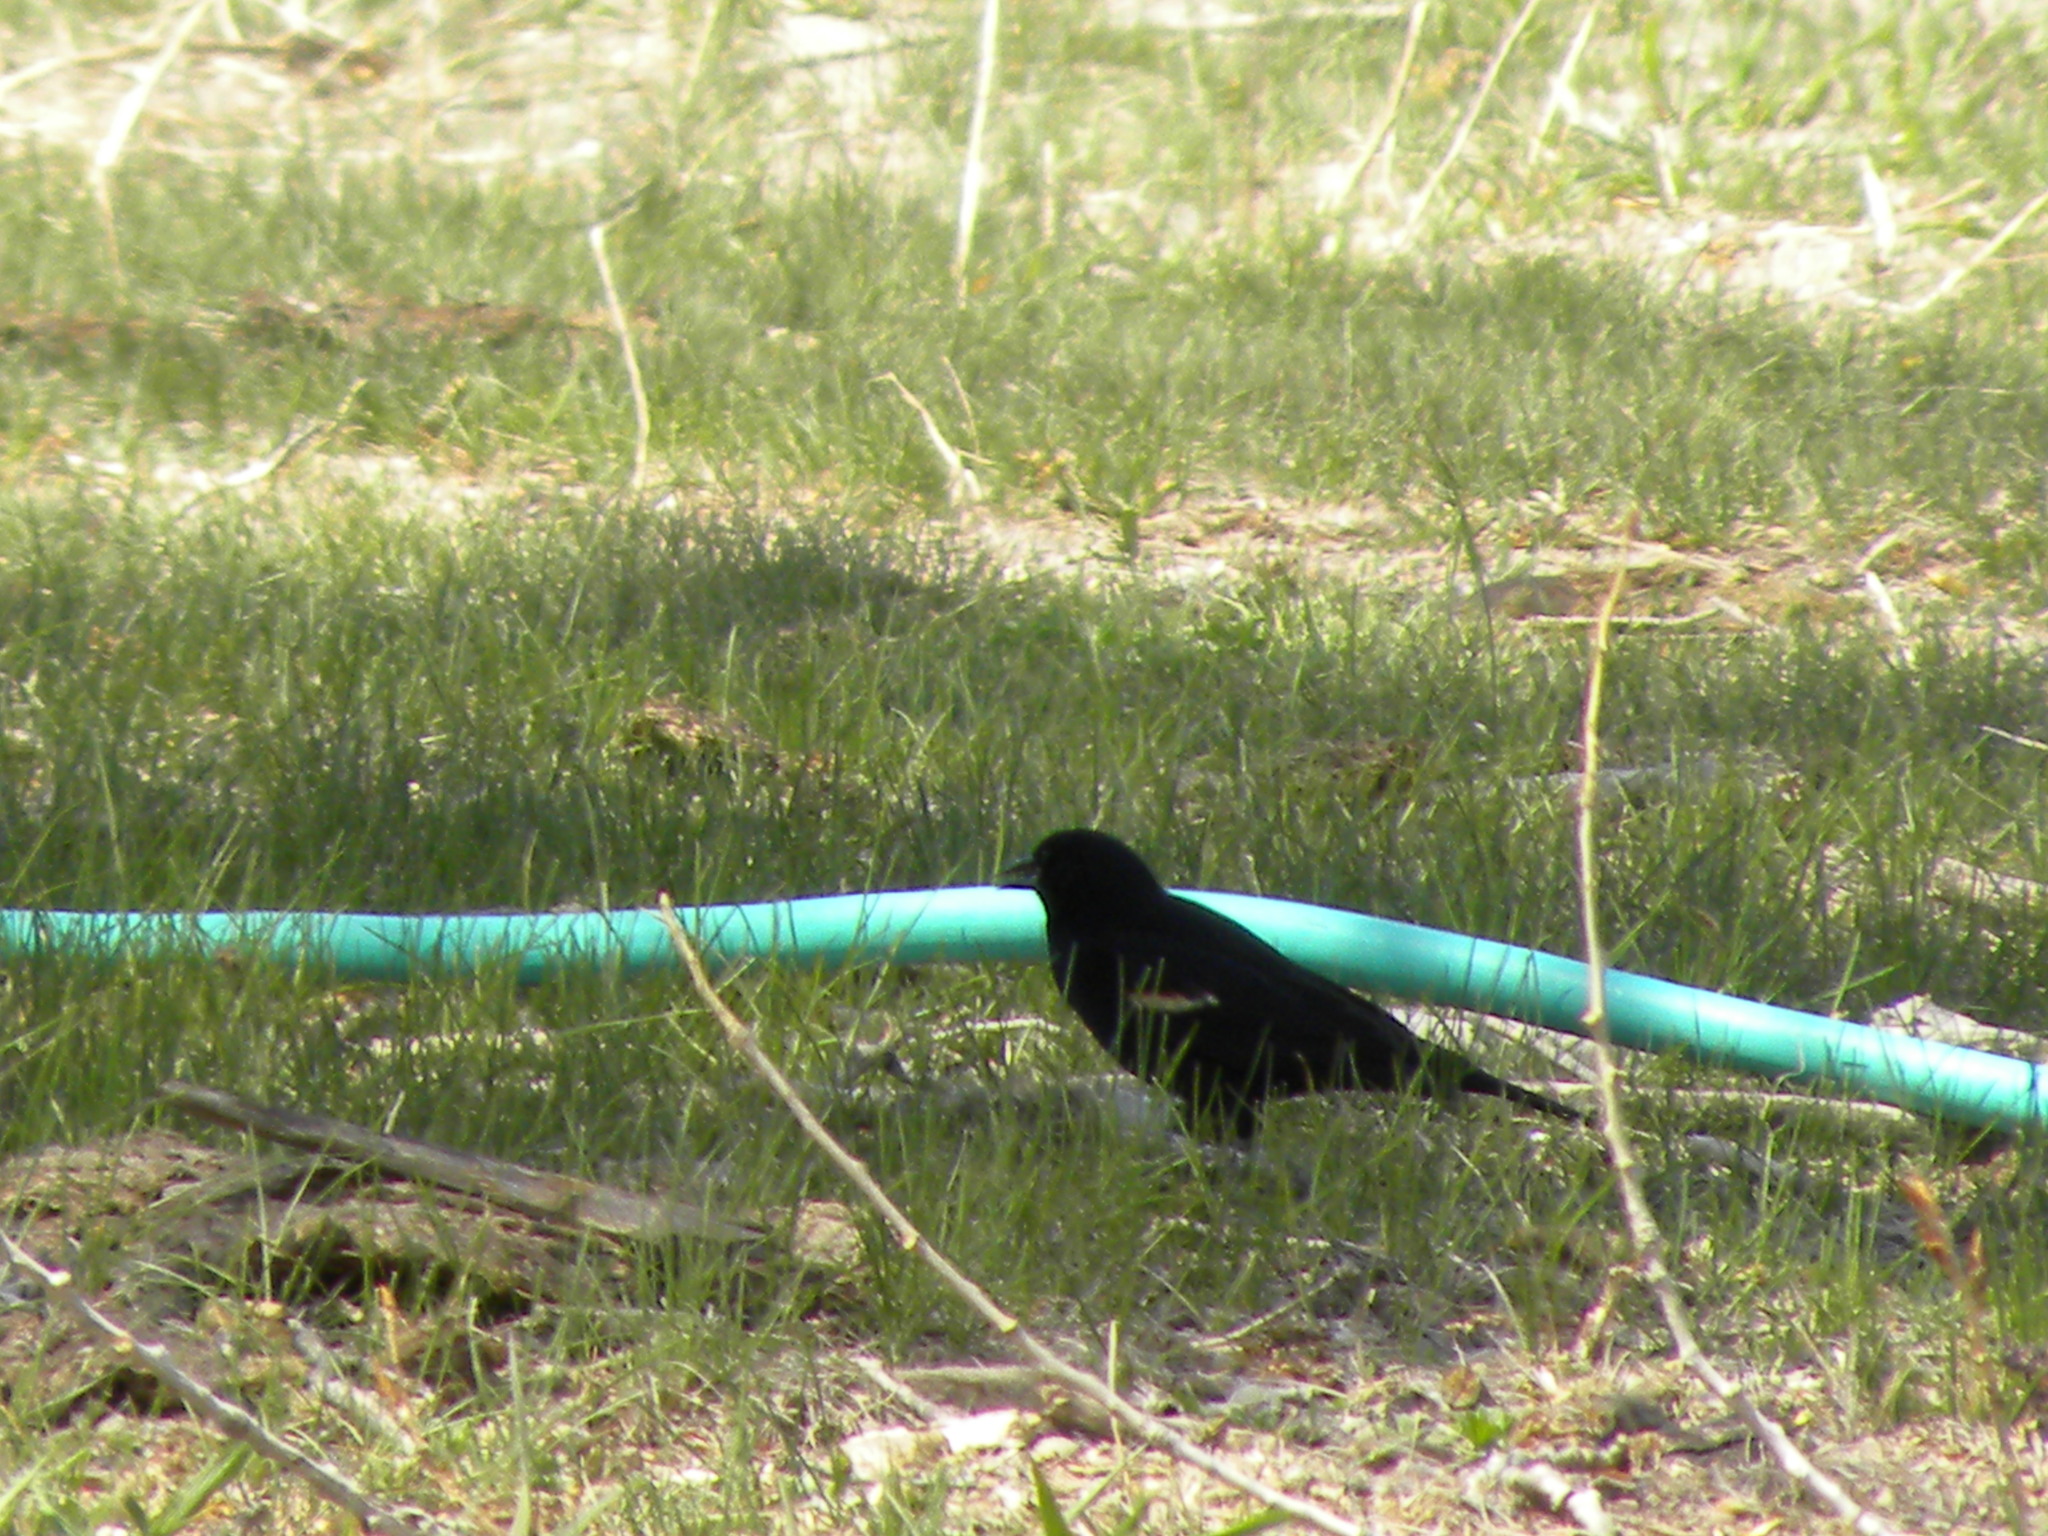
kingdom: Animalia
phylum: Chordata
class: Aves
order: Passeriformes
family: Icteridae
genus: Agelaius
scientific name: Agelaius phoeniceus
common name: Red-winged blackbird
